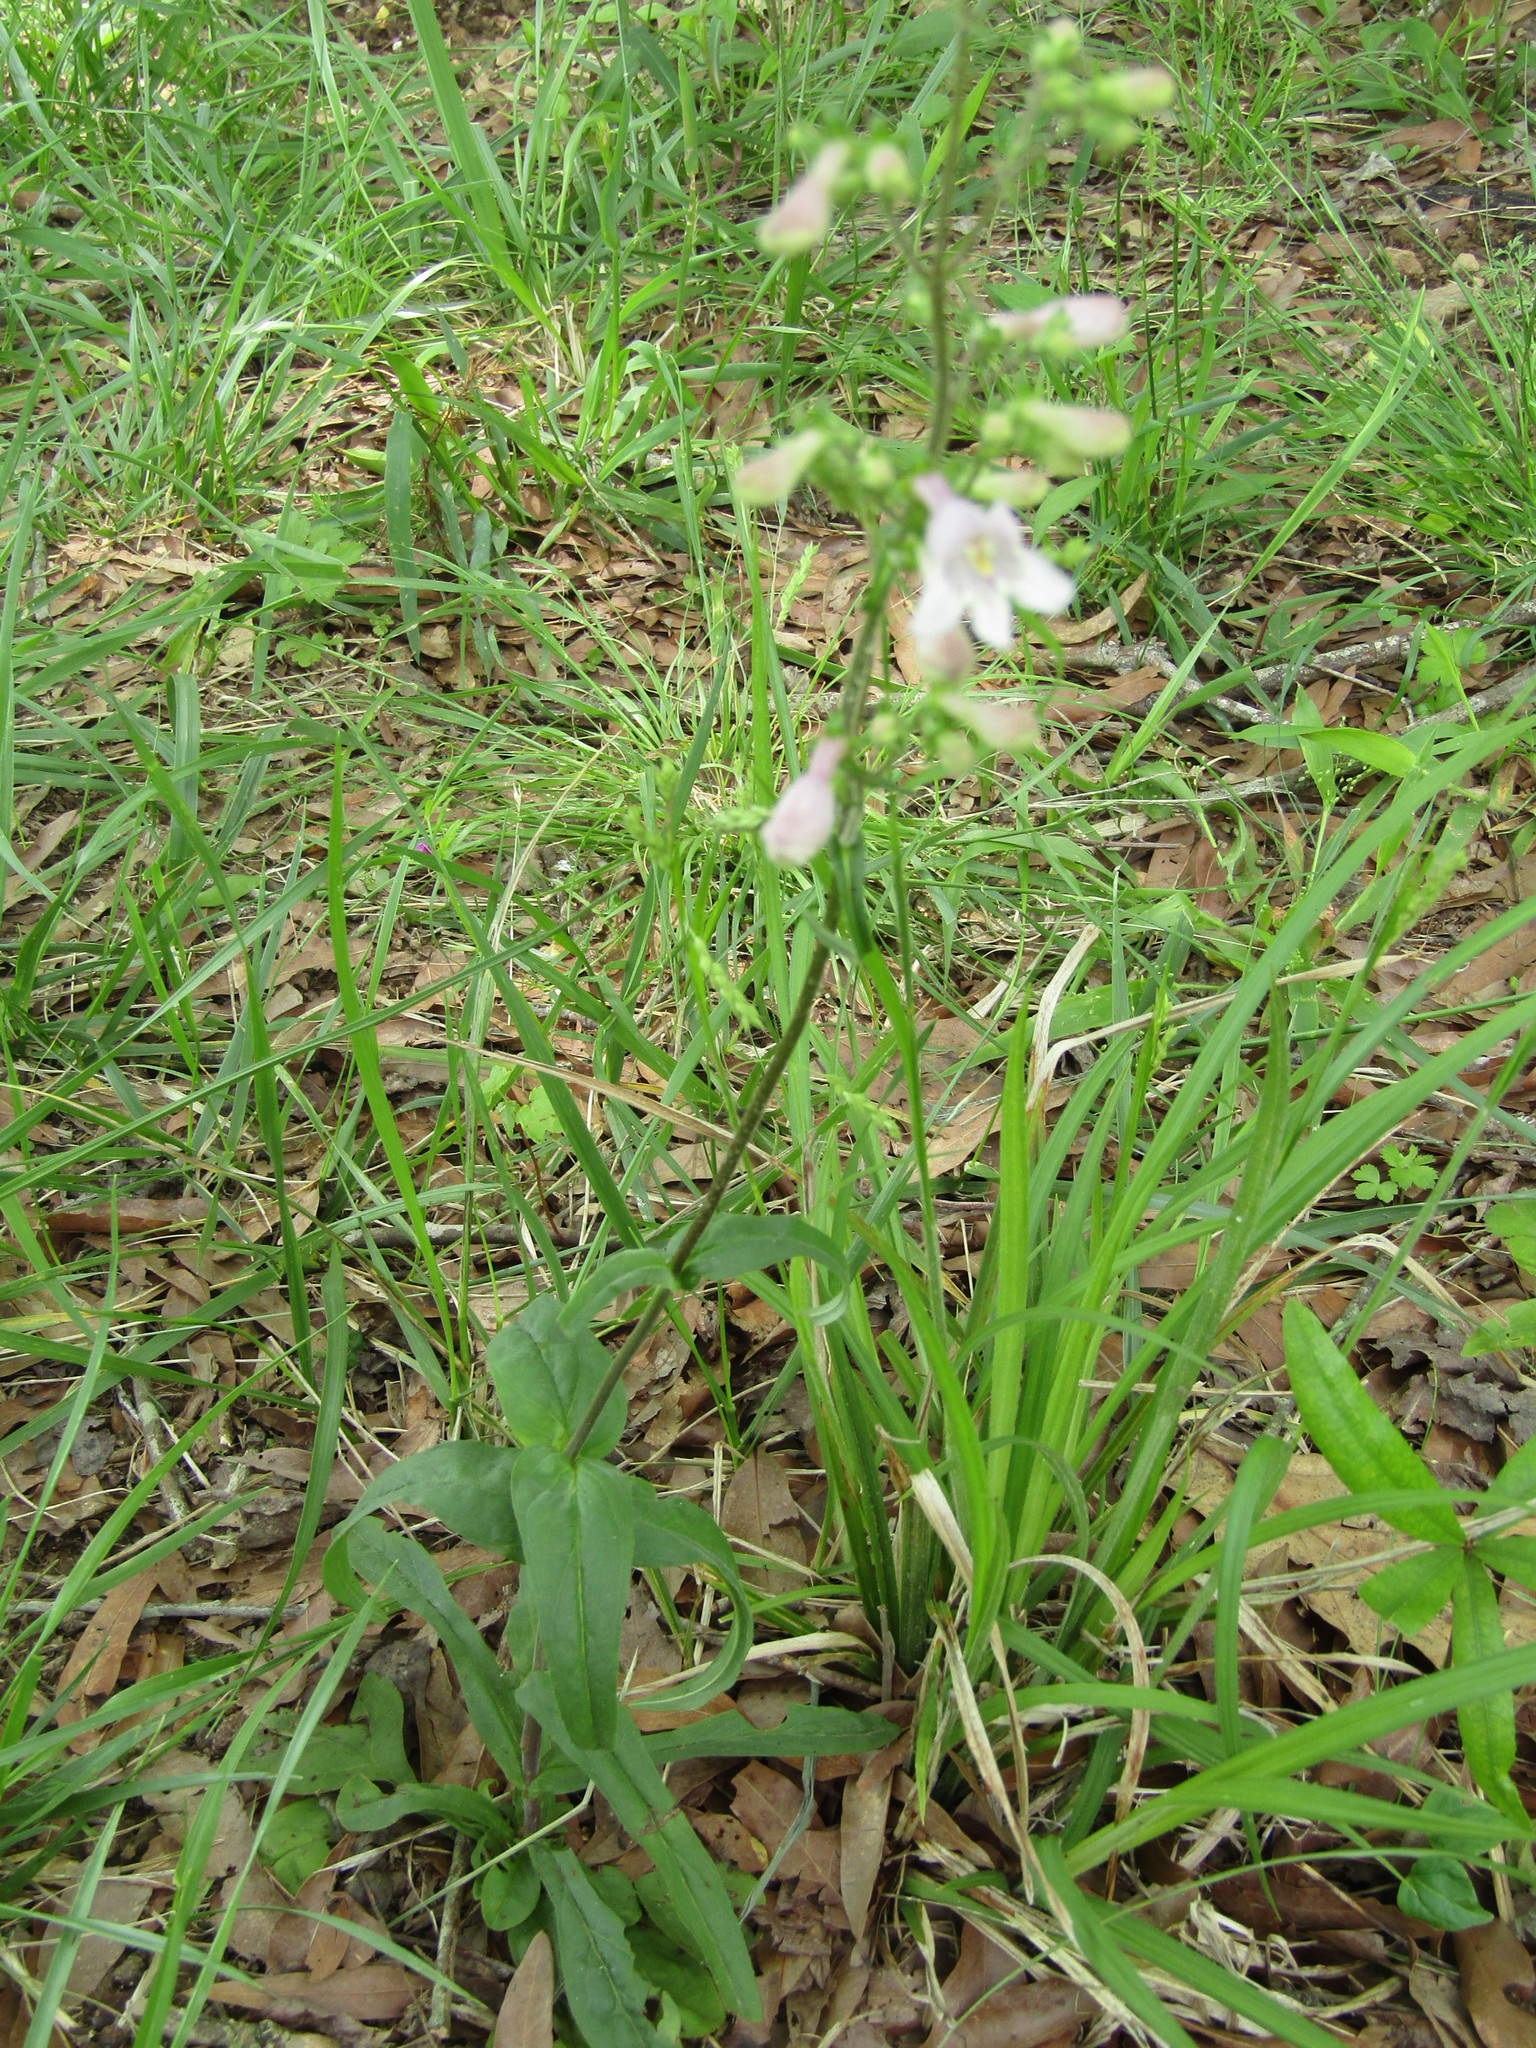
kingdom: Plantae
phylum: Tracheophyta
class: Magnoliopsida
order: Lamiales
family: Plantaginaceae
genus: Penstemon
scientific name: Penstemon laevigatus
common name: Eastern beardtongue
